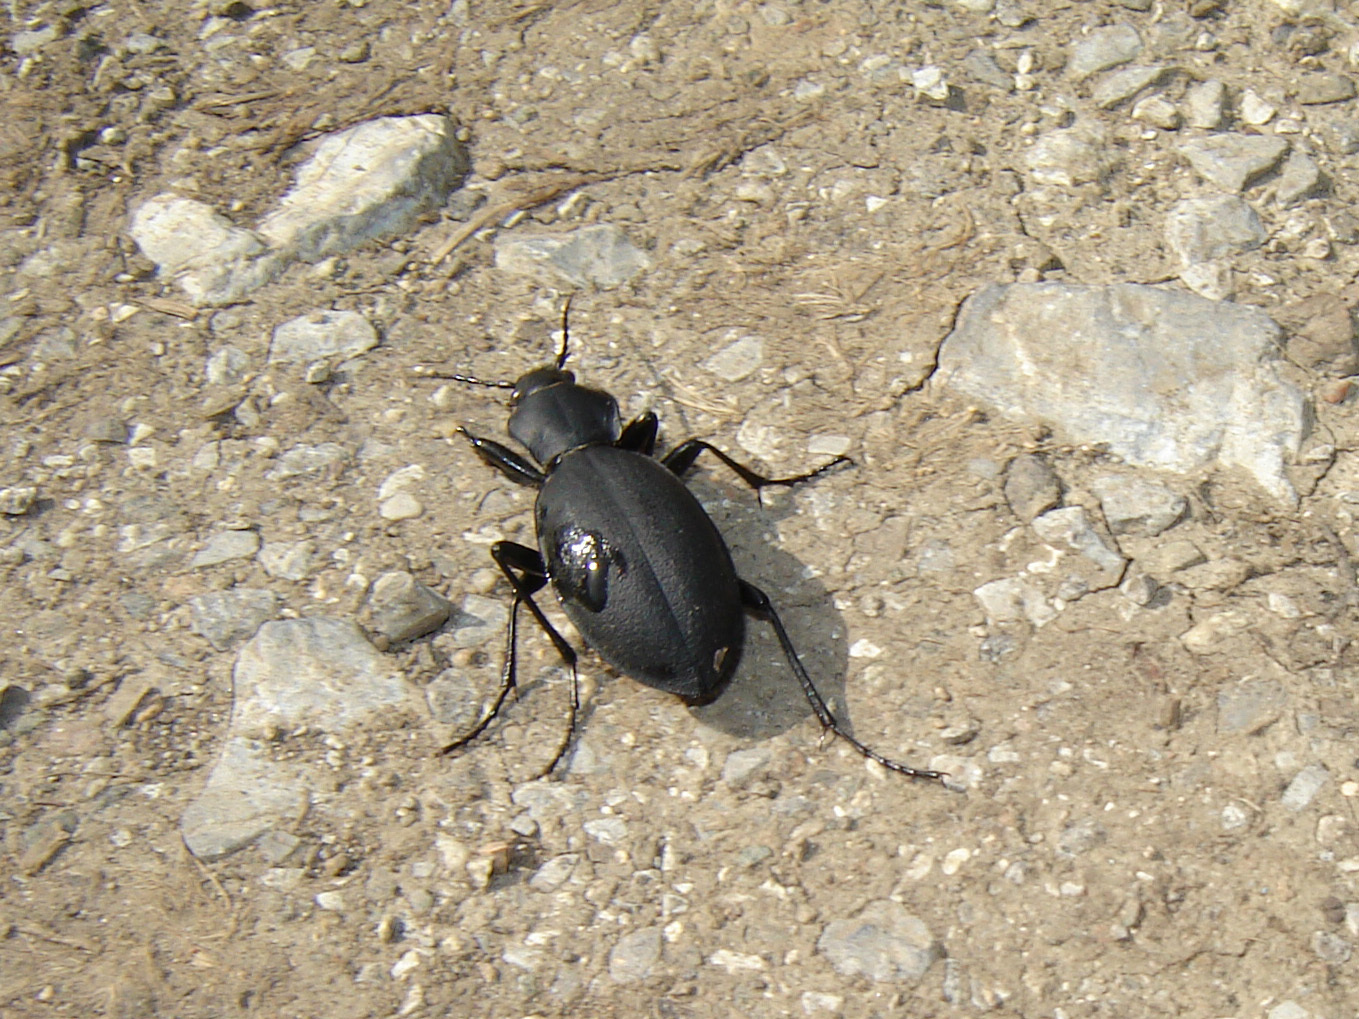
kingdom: Animalia
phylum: Arthropoda
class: Insecta
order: Coleoptera
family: Carabidae
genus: Carabus
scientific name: Carabus coriaceus
